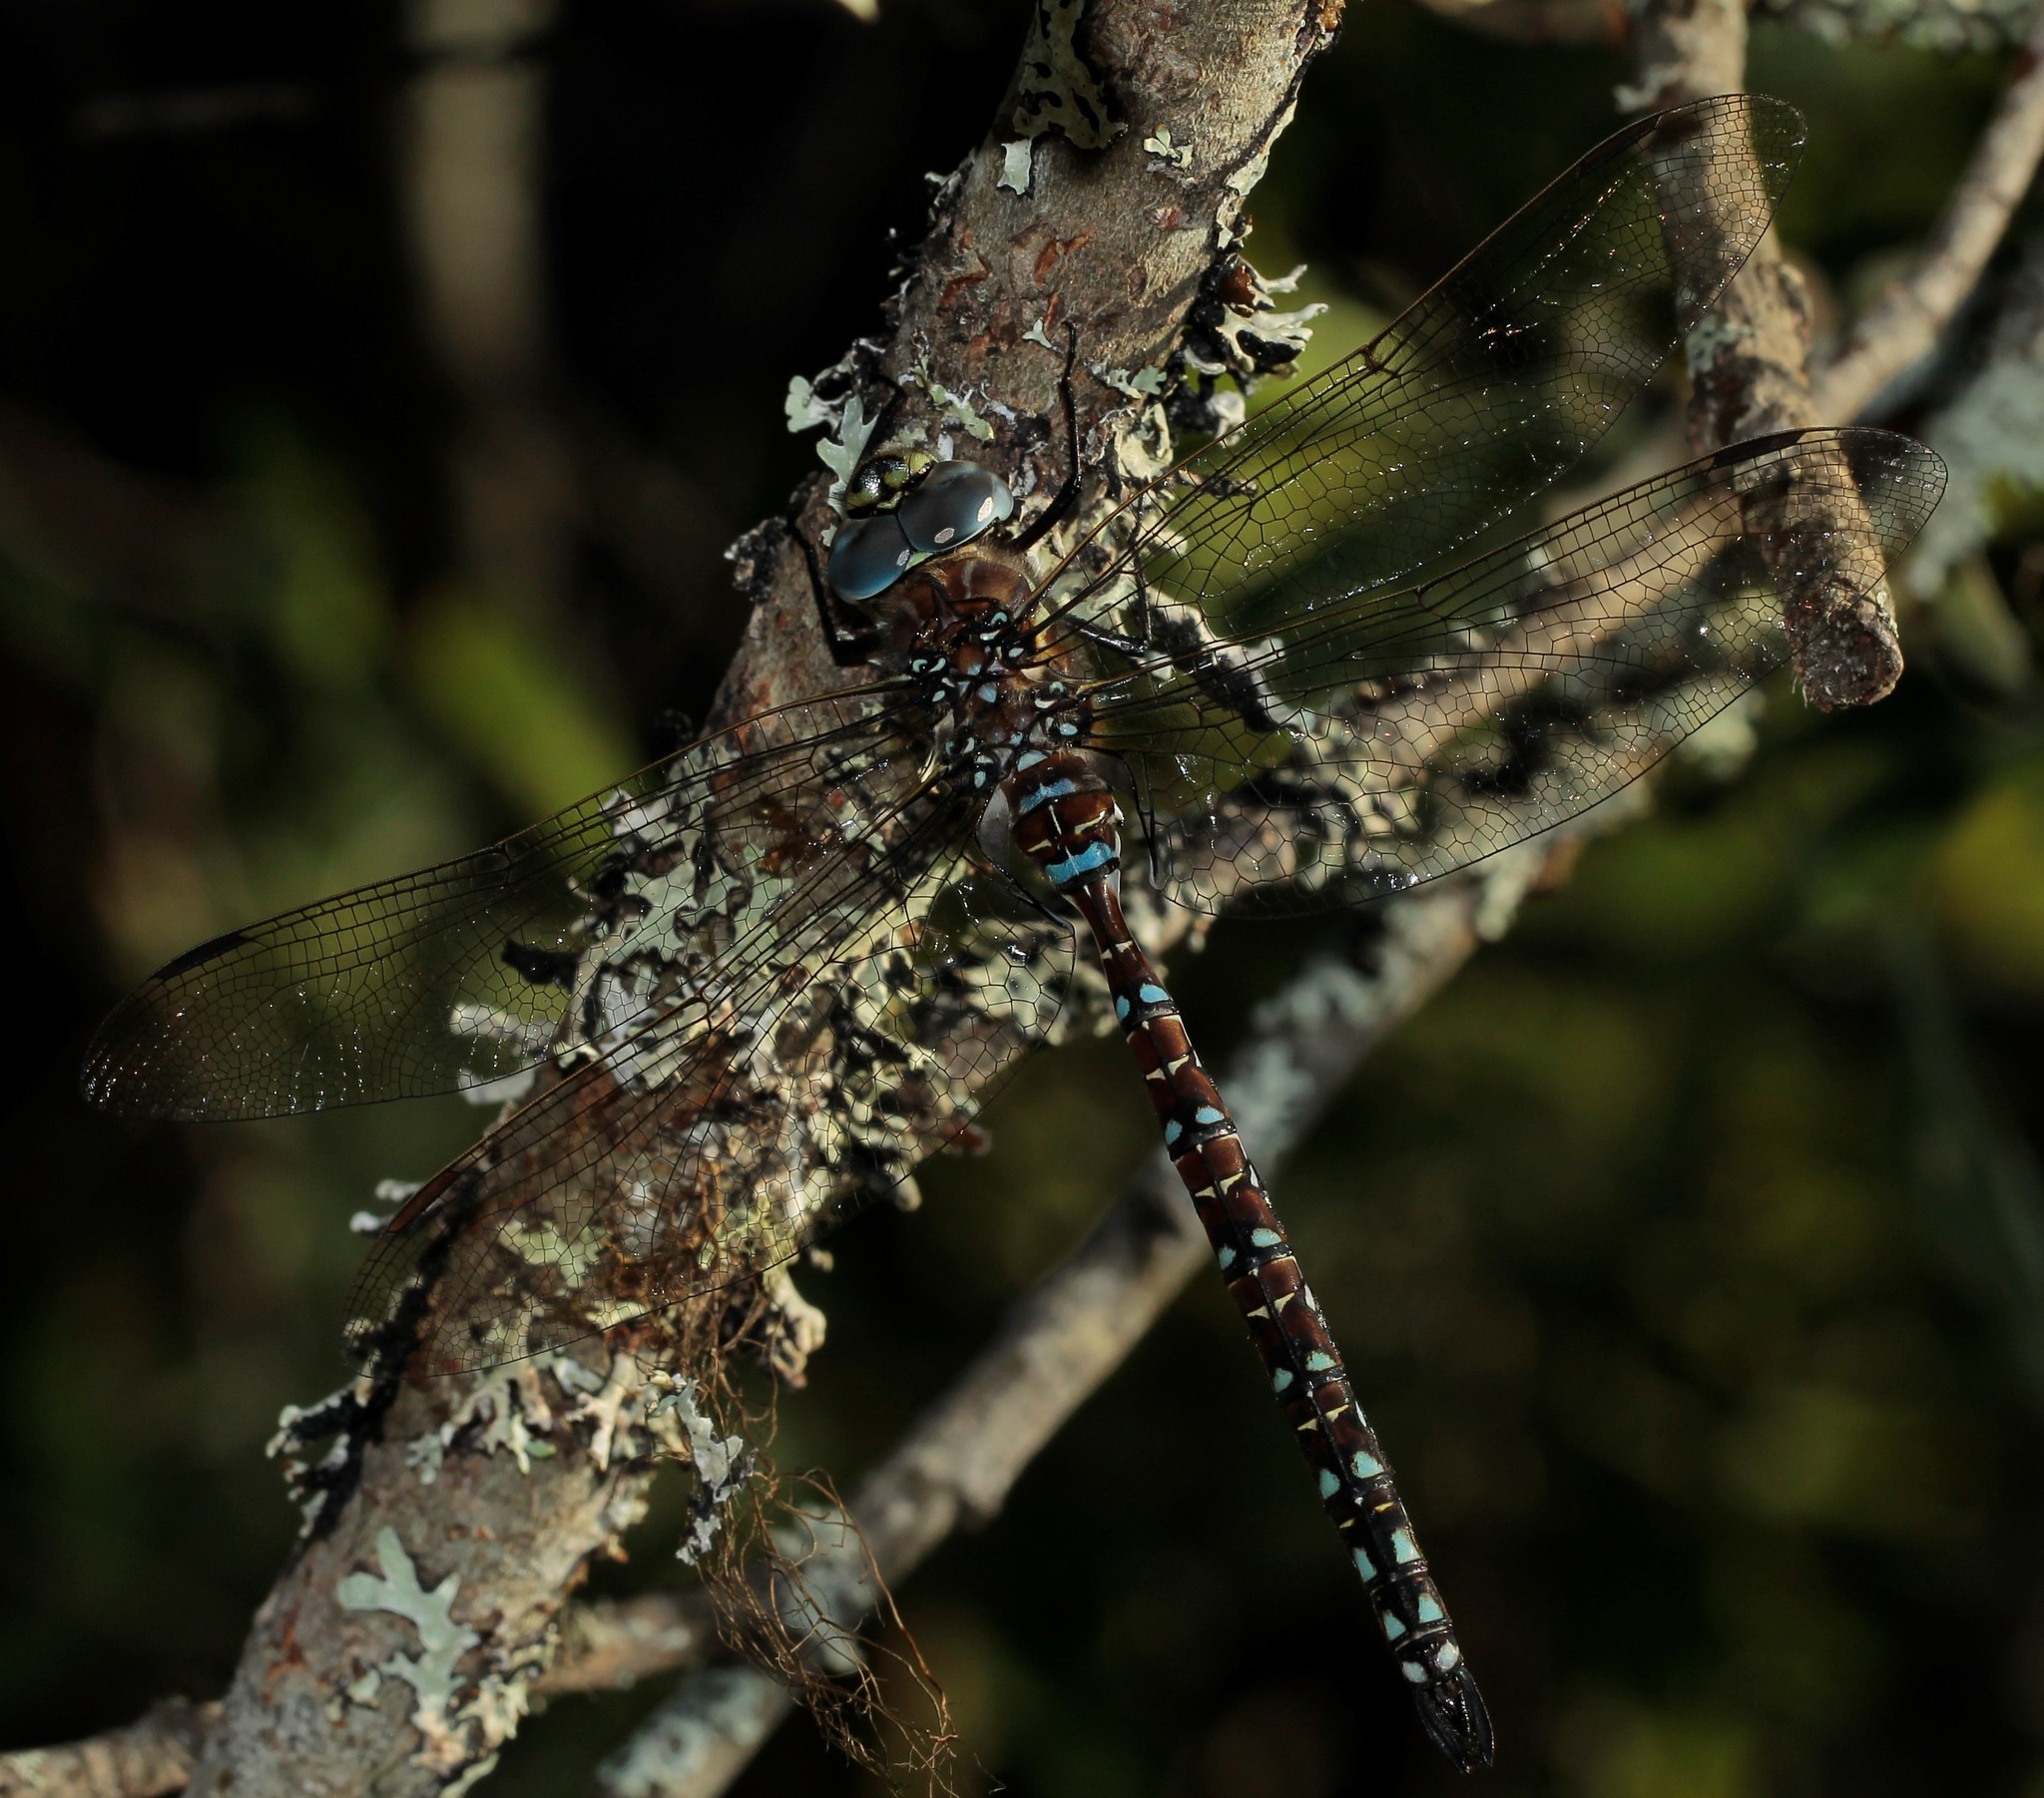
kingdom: Animalia
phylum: Arthropoda
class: Insecta
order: Odonata
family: Aeshnidae
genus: Aeshna
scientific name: Aeshna juncea
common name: Moorland hawker
